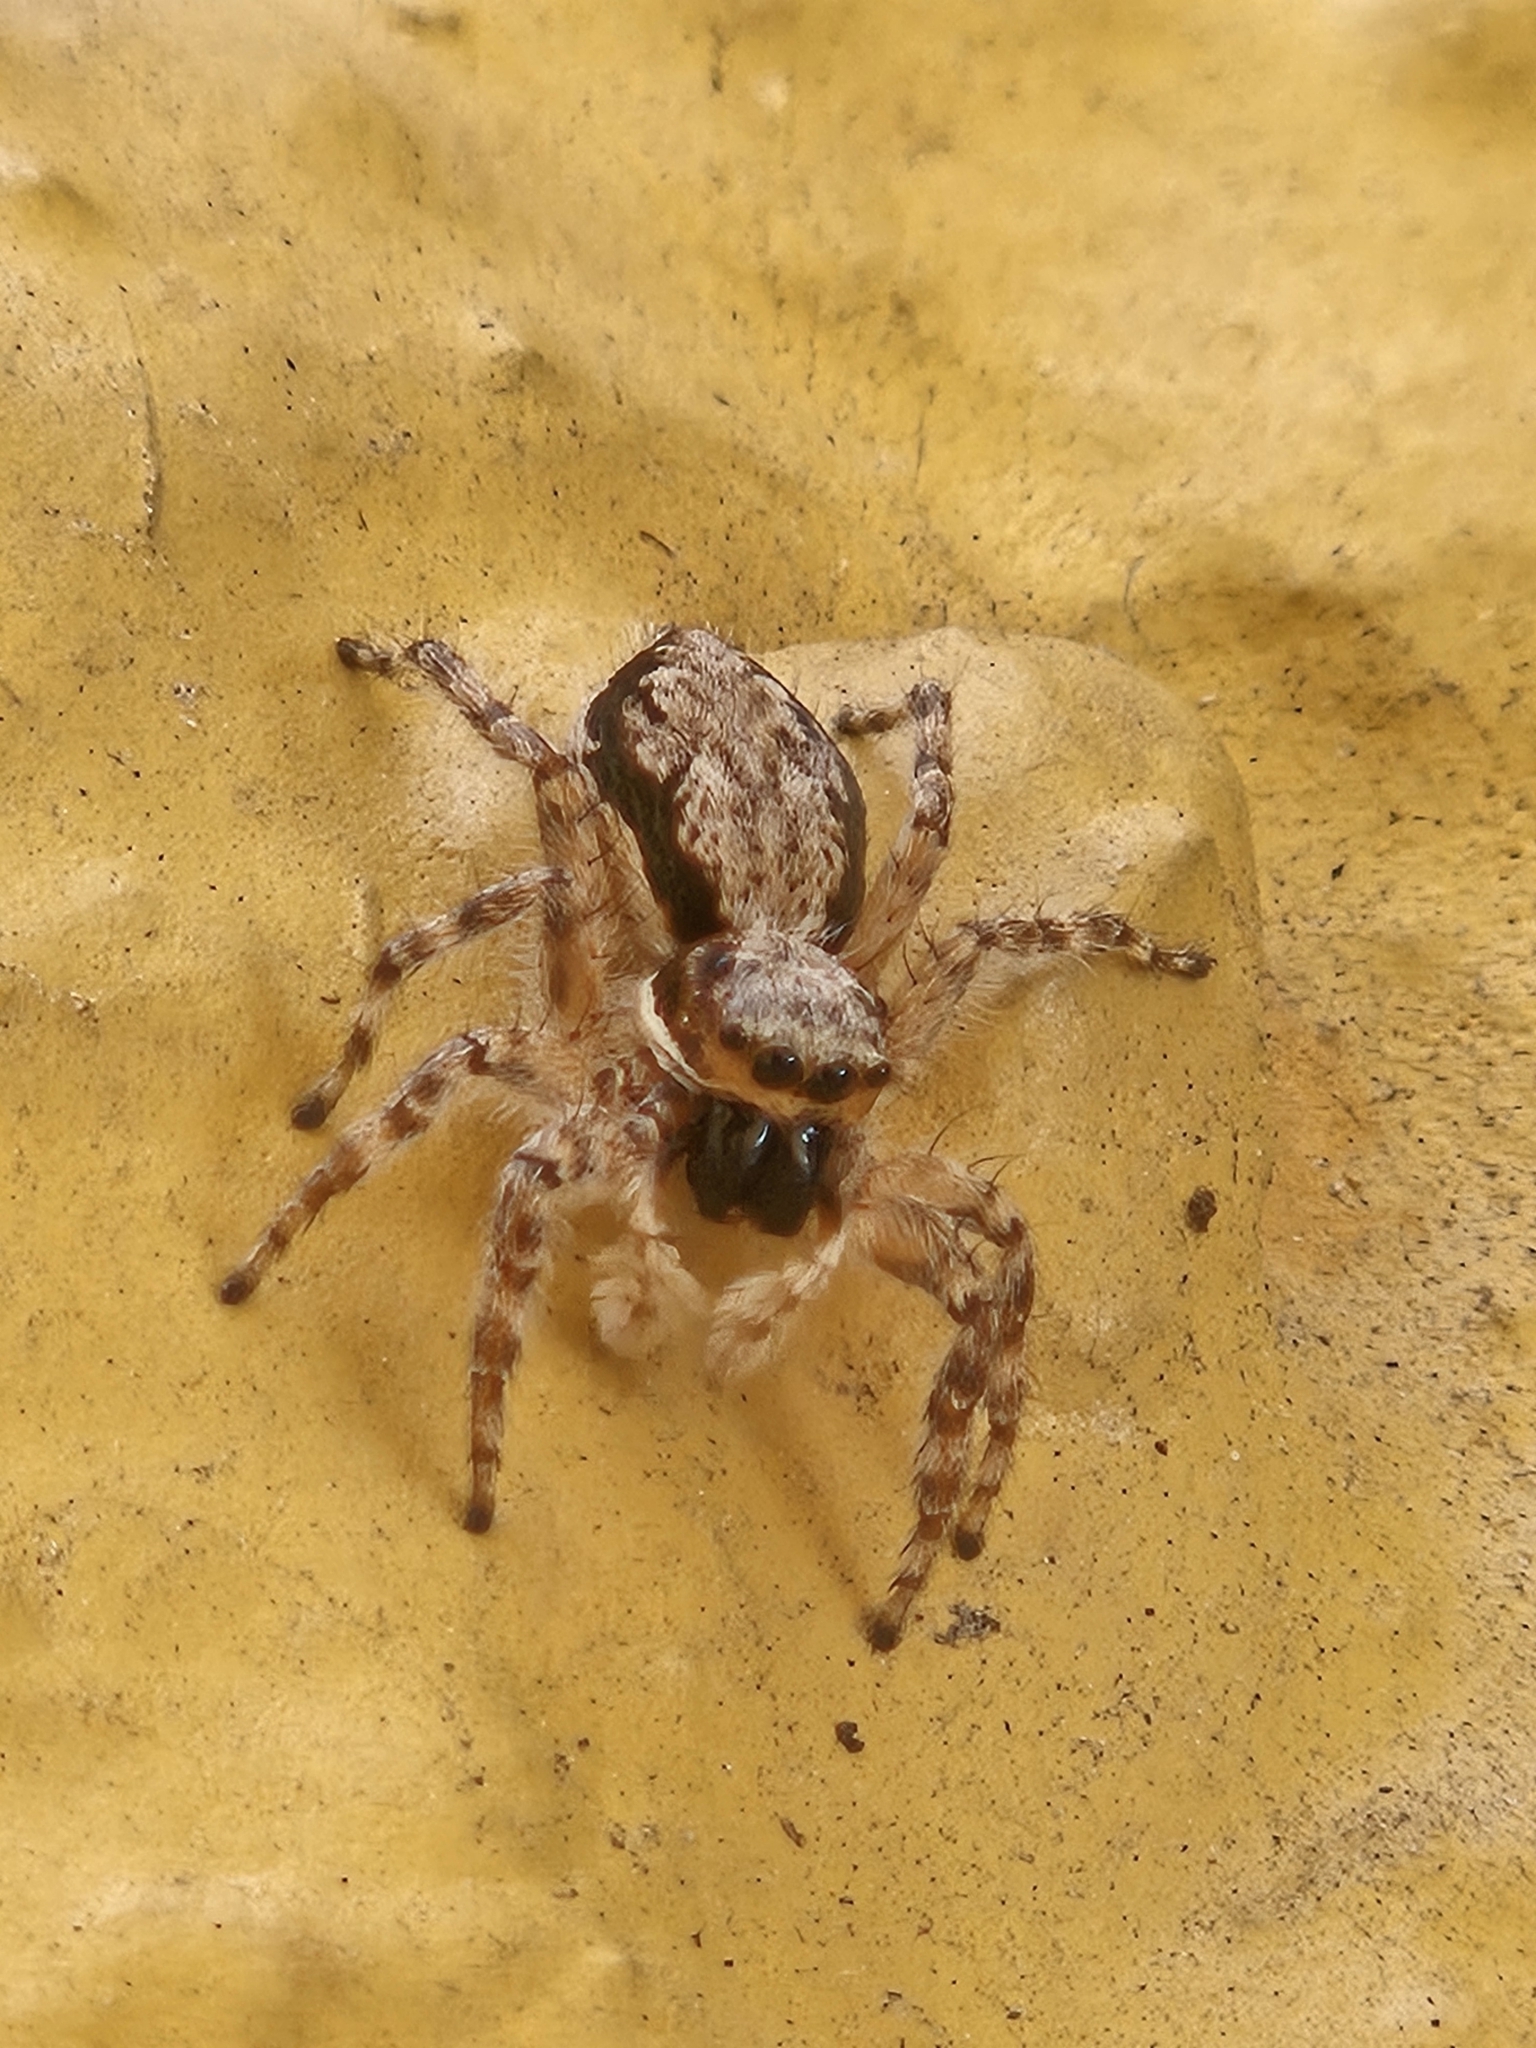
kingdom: Animalia
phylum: Arthropoda
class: Arachnida
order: Araneae
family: Salticidae
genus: Menemerus
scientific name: Menemerus bivittatus
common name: Gray wall jumper
